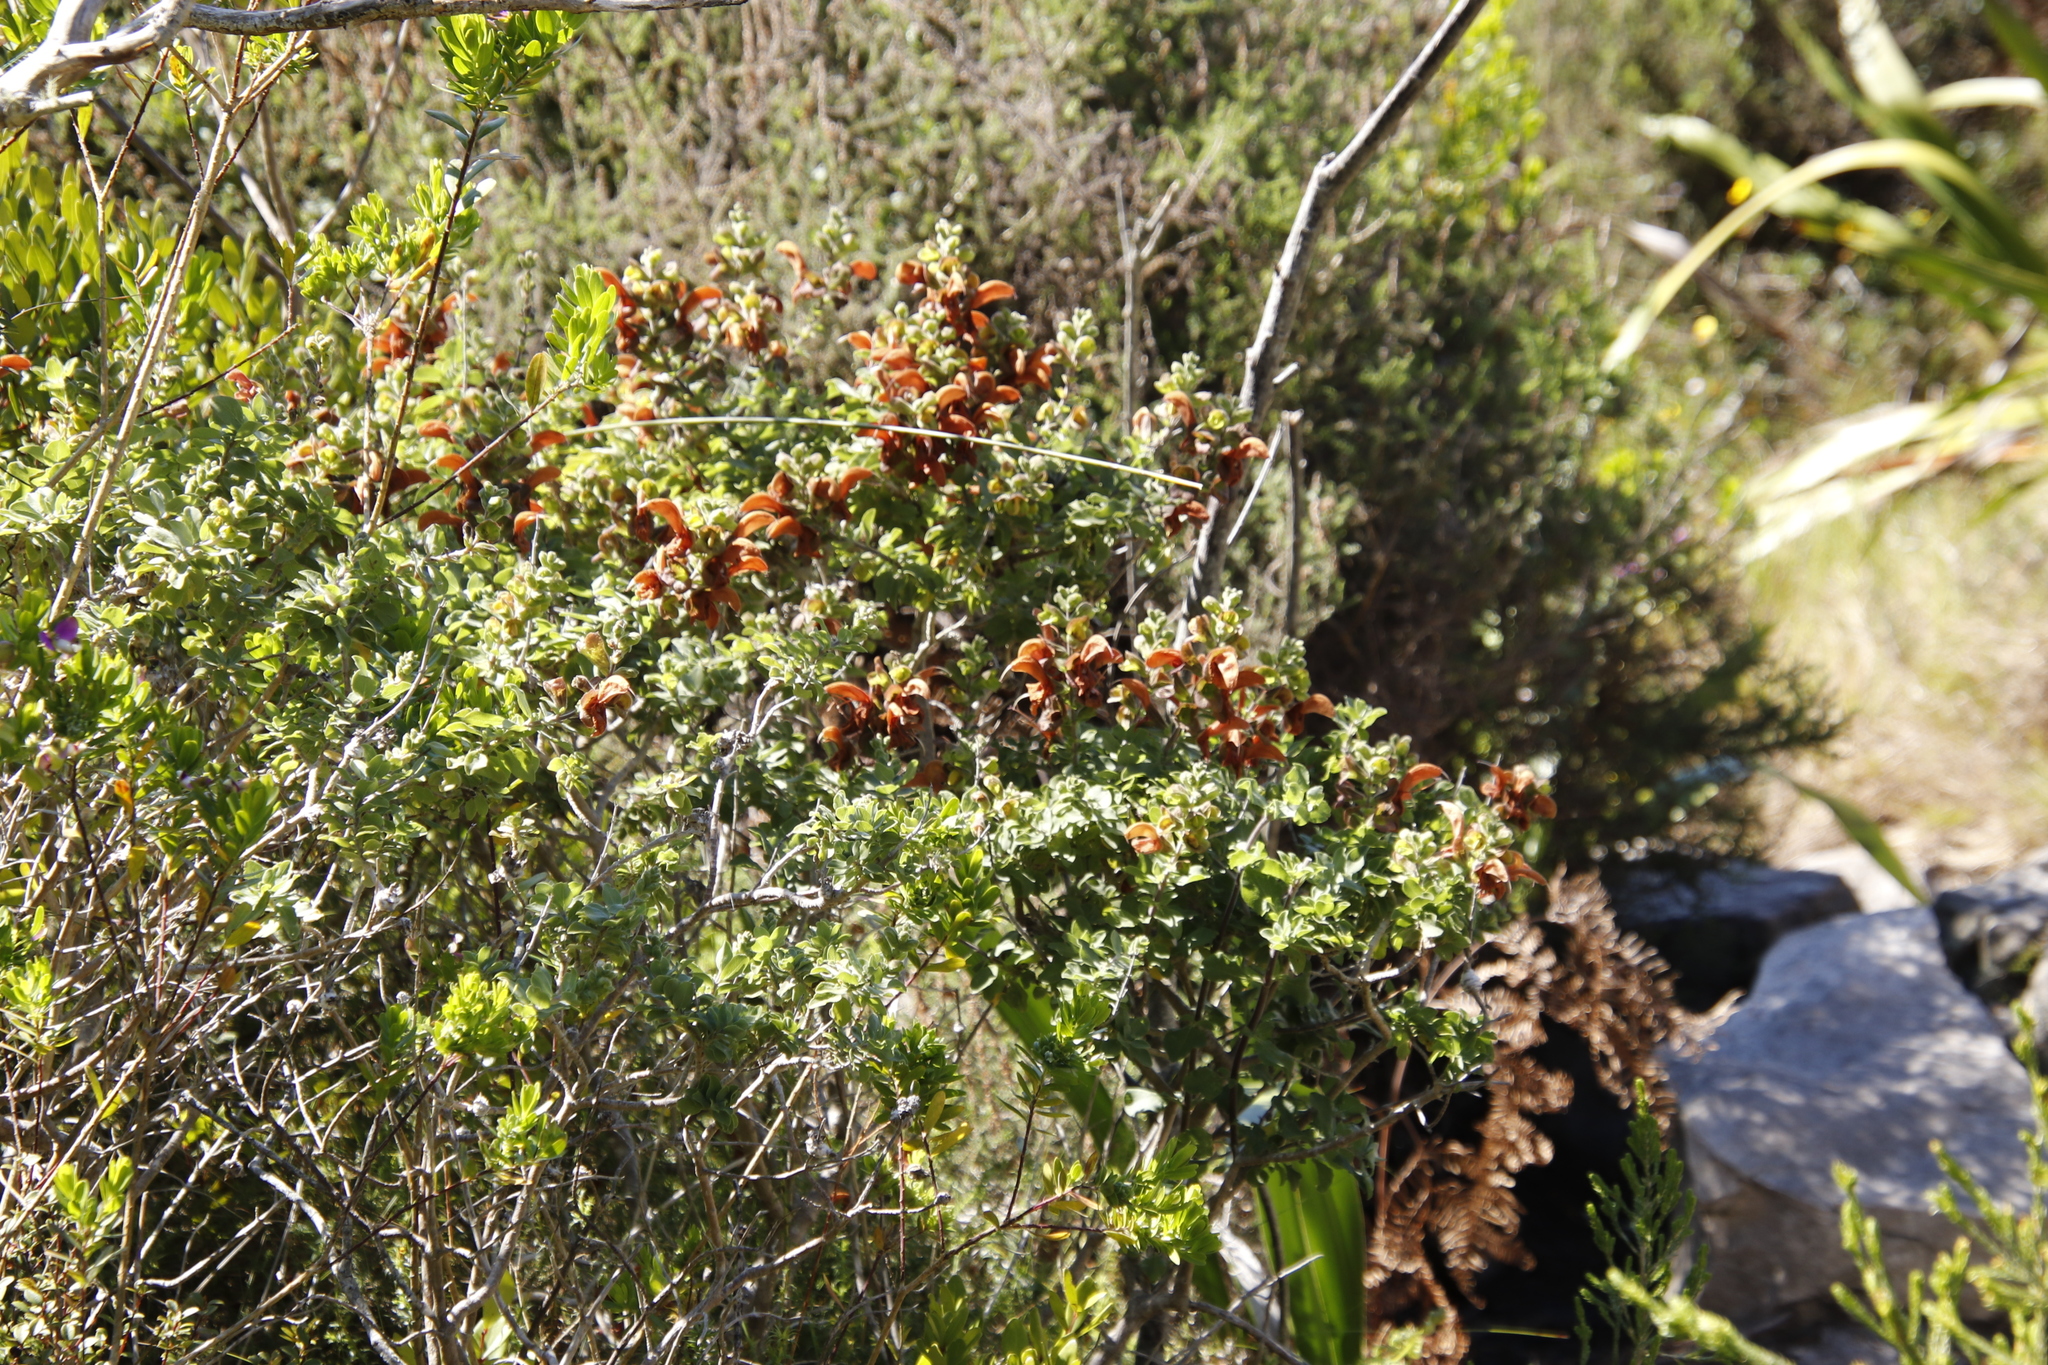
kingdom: Plantae
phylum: Tracheophyta
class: Magnoliopsida
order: Lamiales
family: Lamiaceae
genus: Salvia
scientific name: Salvia aurea
